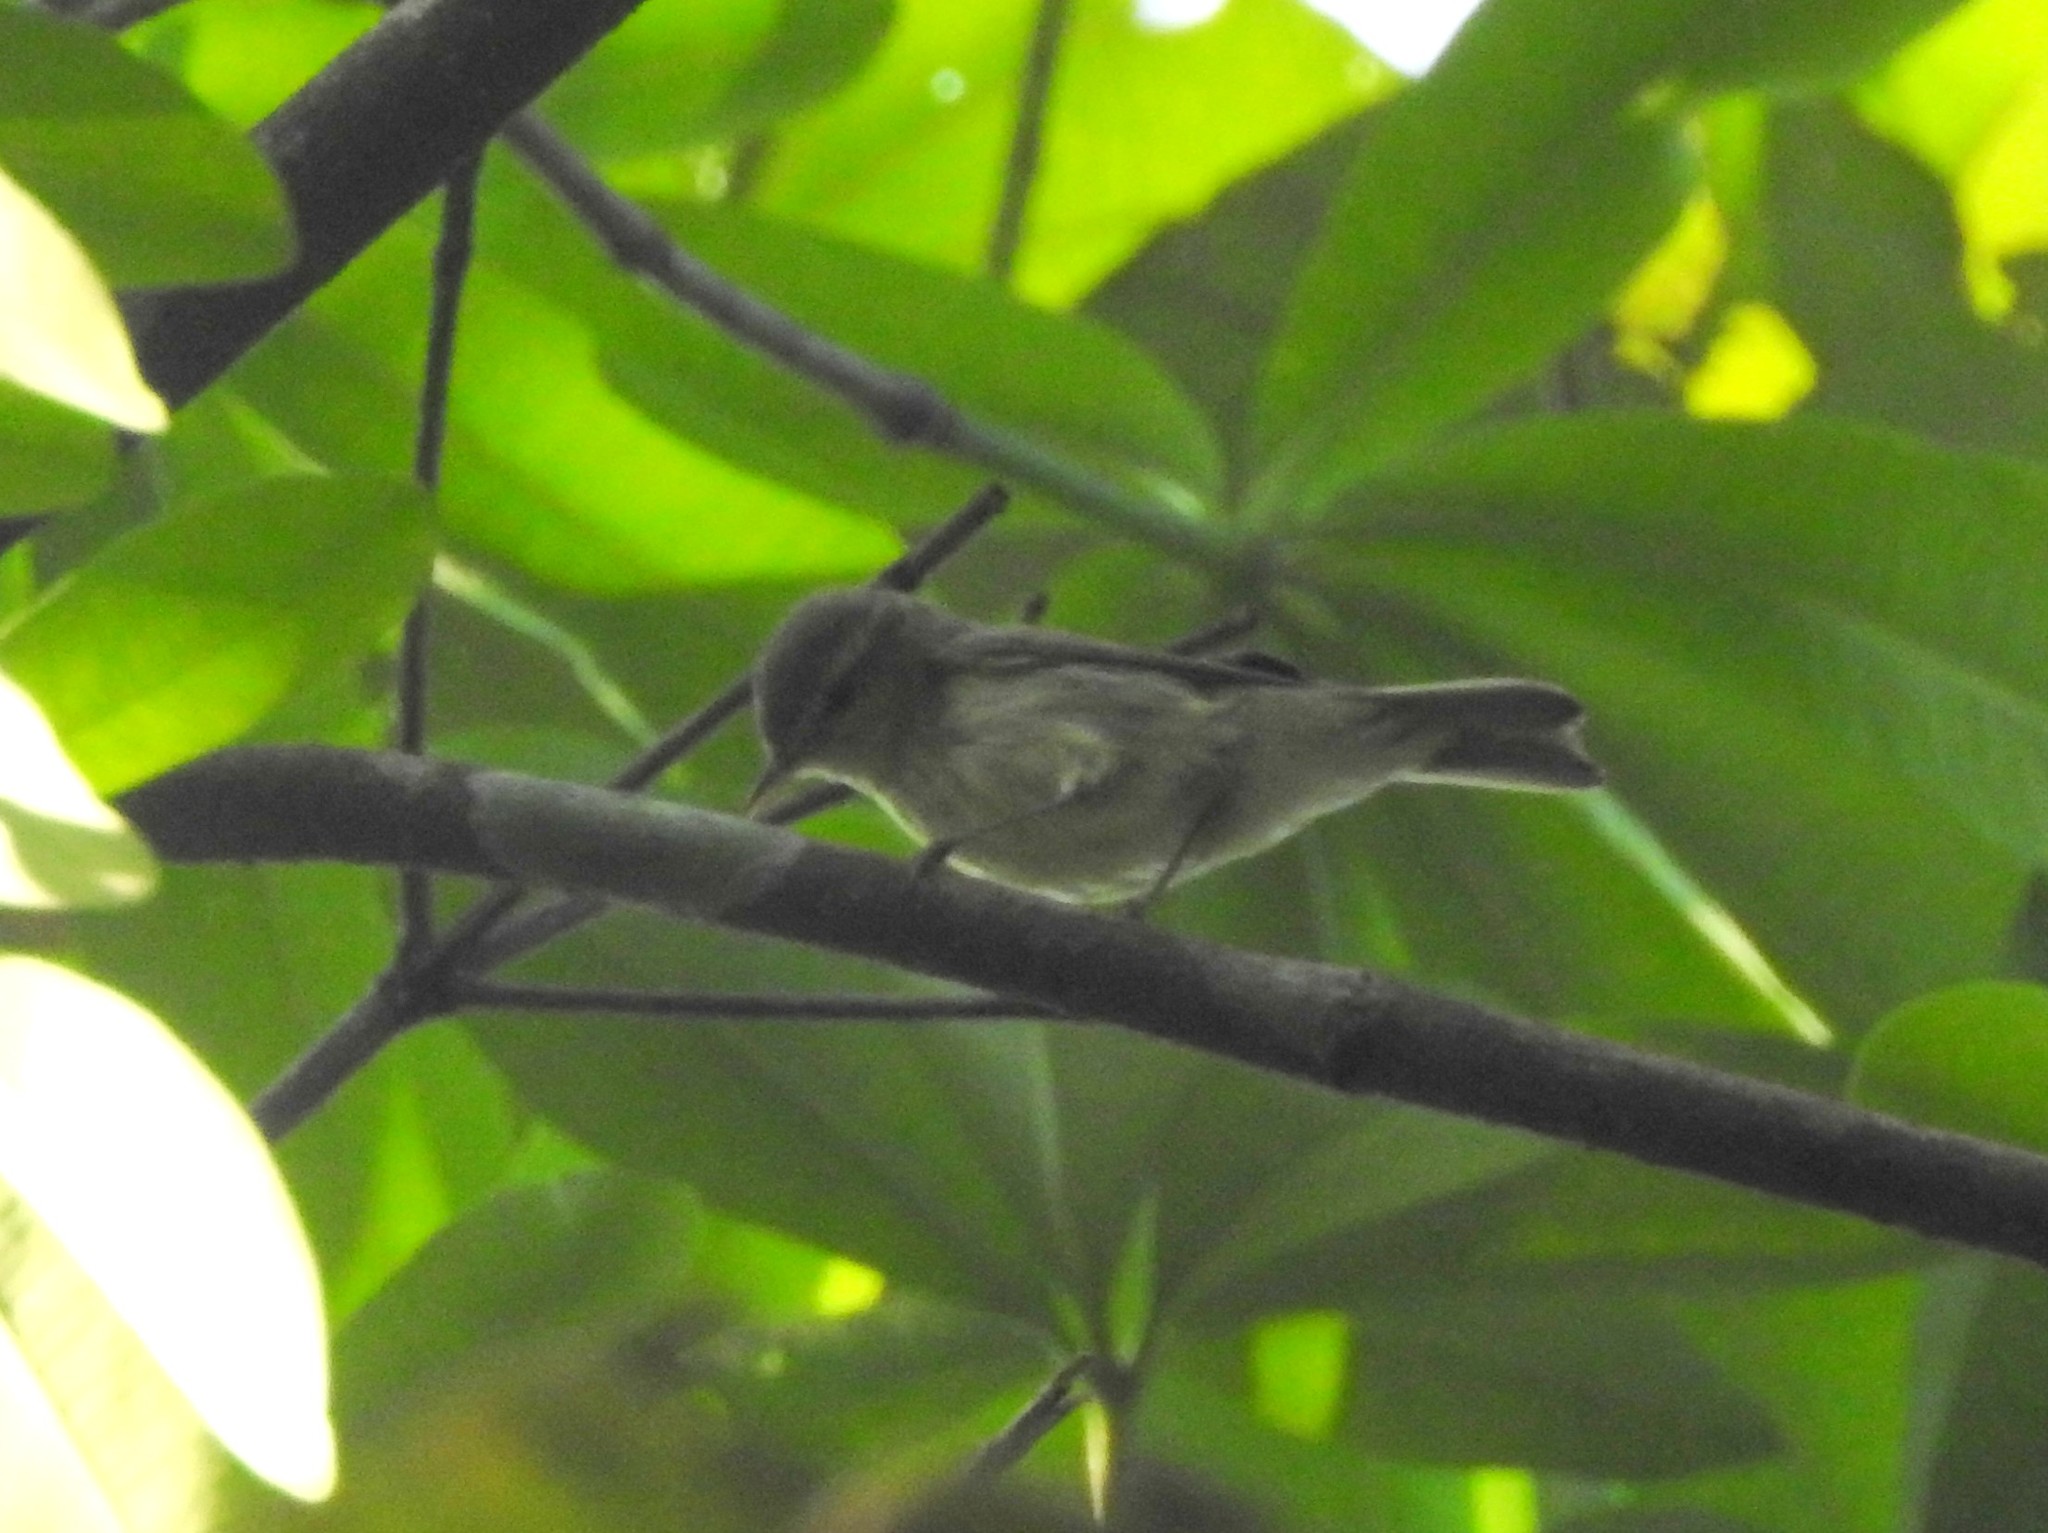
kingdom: Animalia
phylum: Chordata
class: Aves
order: Passeriformes
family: Phylloscopidae
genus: Phylloscopus
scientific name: Phylloscopus tytleri
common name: Tytler's leaf warbler
